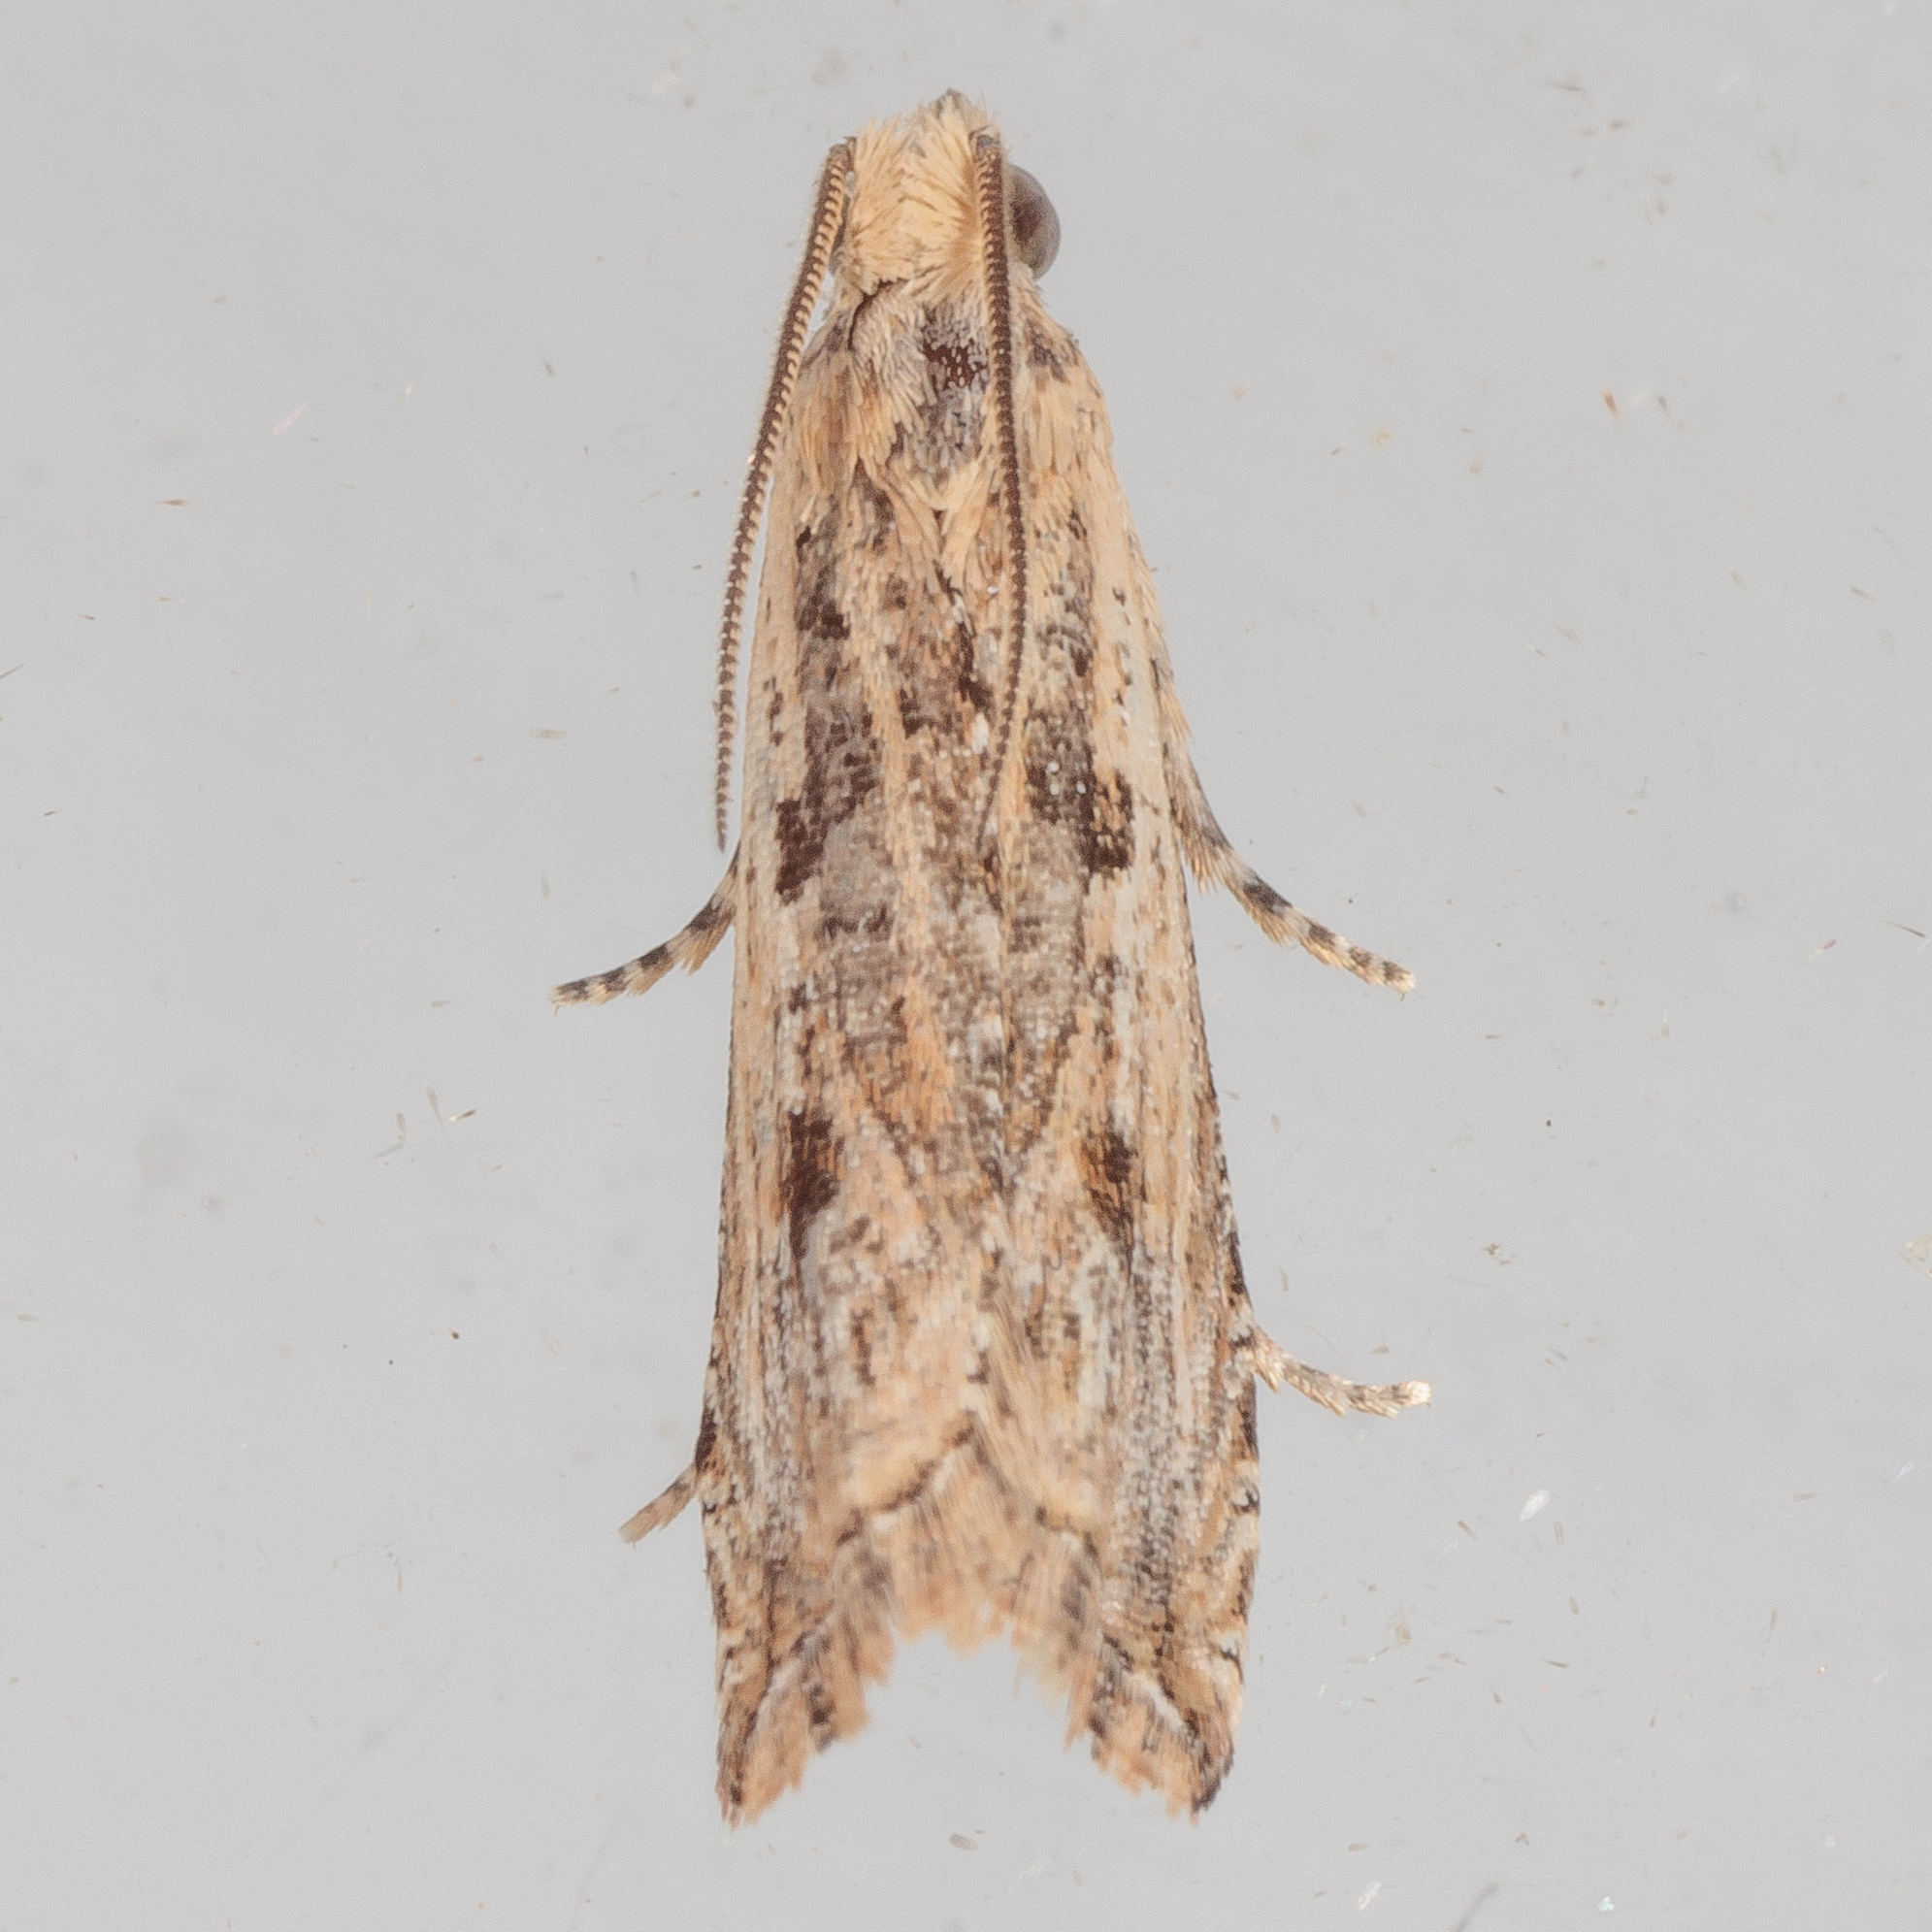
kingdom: Animalia
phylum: Arthropoda
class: Insecta
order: Lepidoptera
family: Tortricidae
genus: Bactra
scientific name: Bactra verutana
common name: Javelin moth
